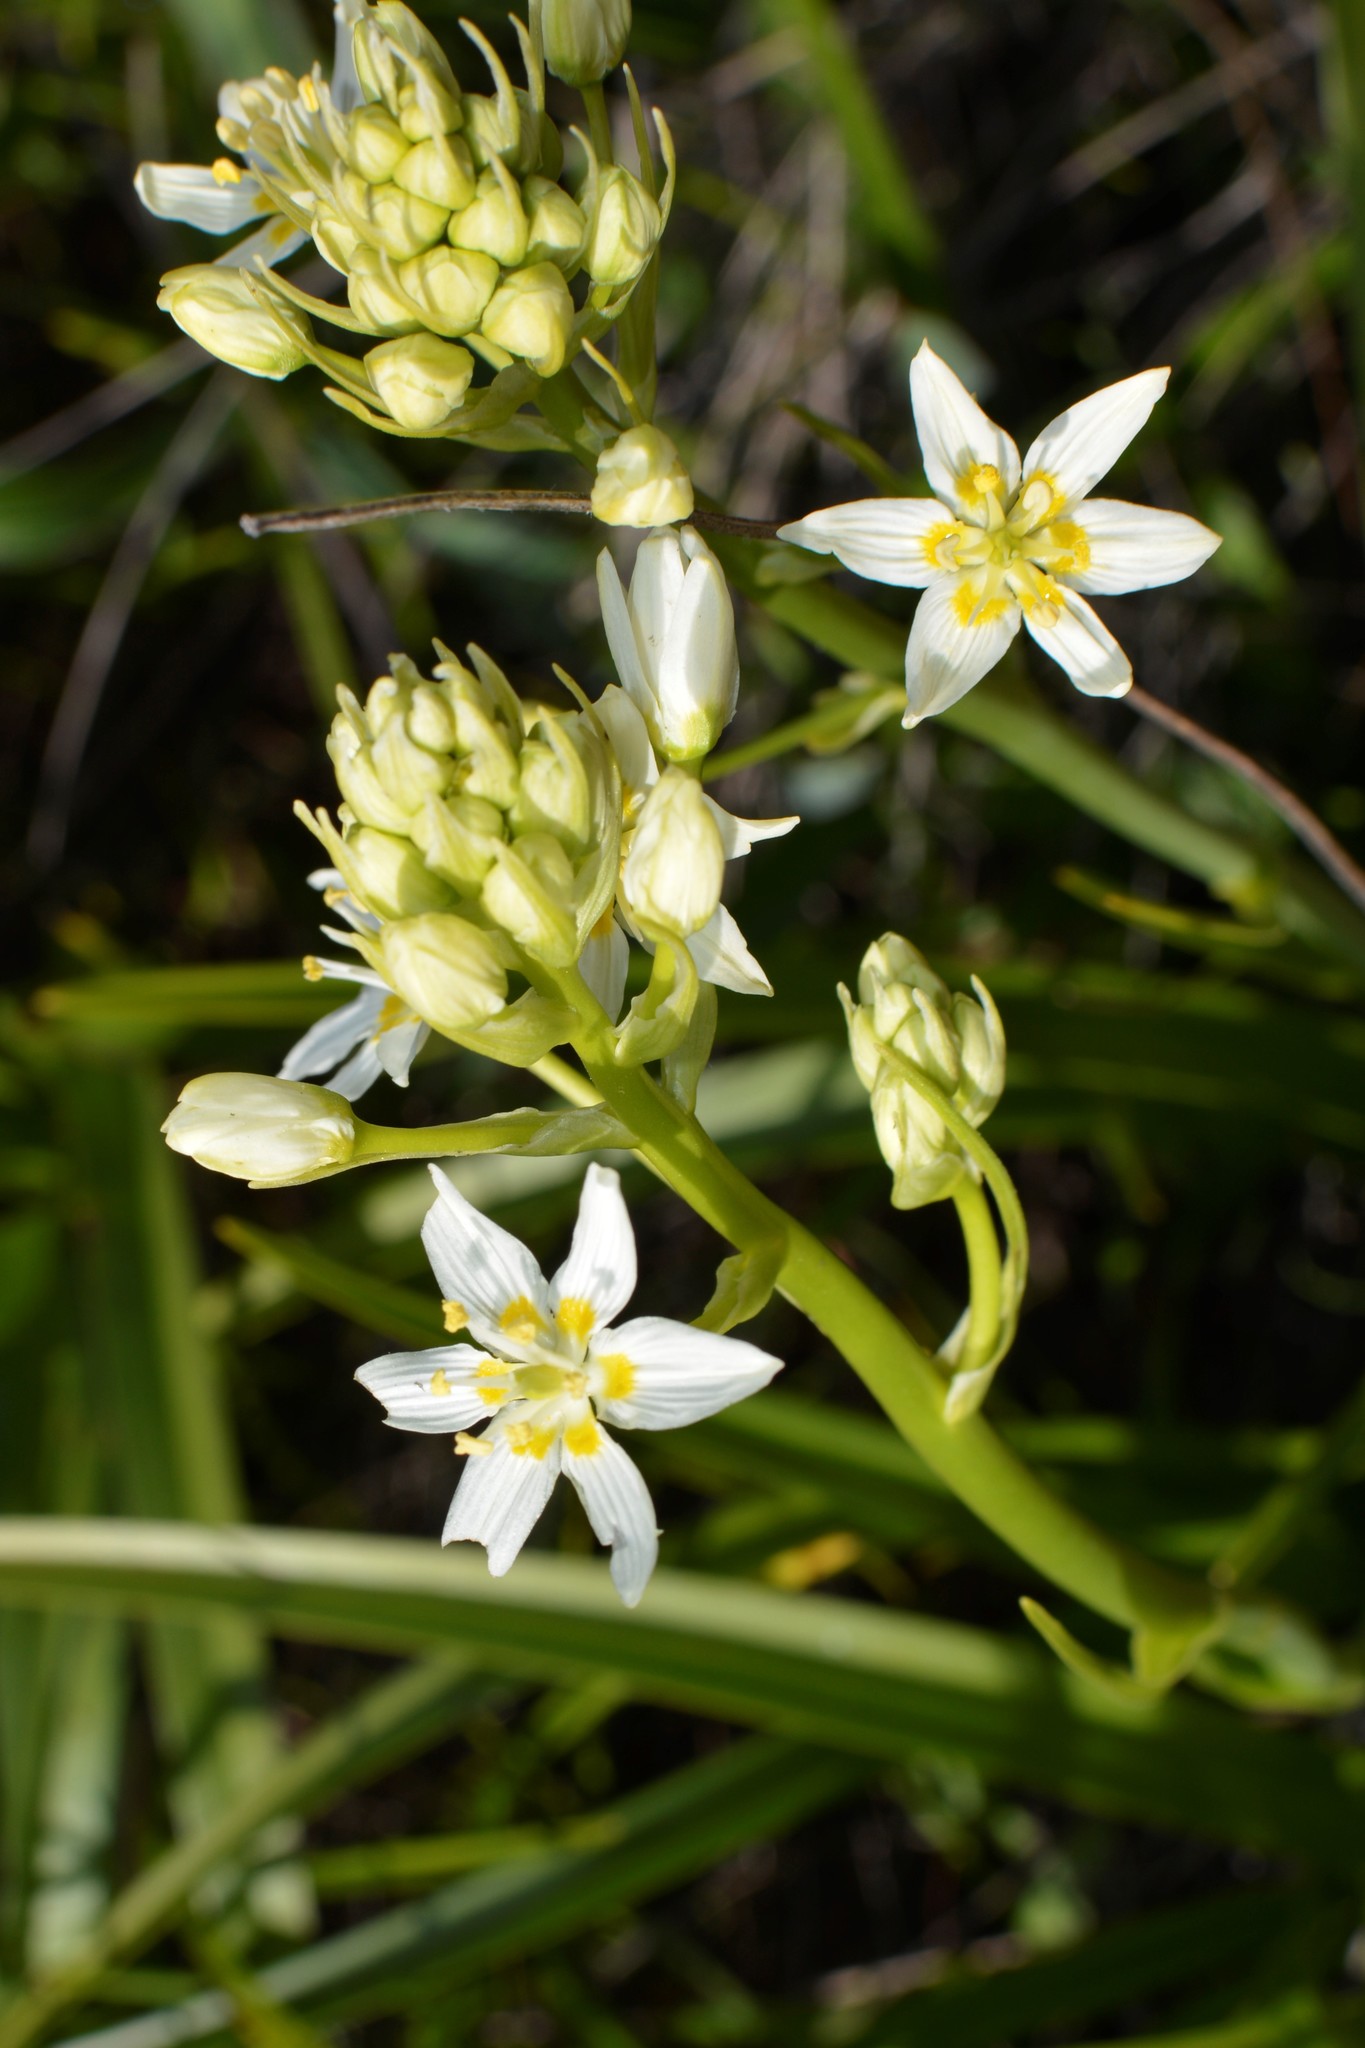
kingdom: Plantae
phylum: Tracheophyta
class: Liliopsida
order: Liliales
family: Melanthiaceae
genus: Toxicoscordion
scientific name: Toxicoscordion fremontii
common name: Fremont's death camas
